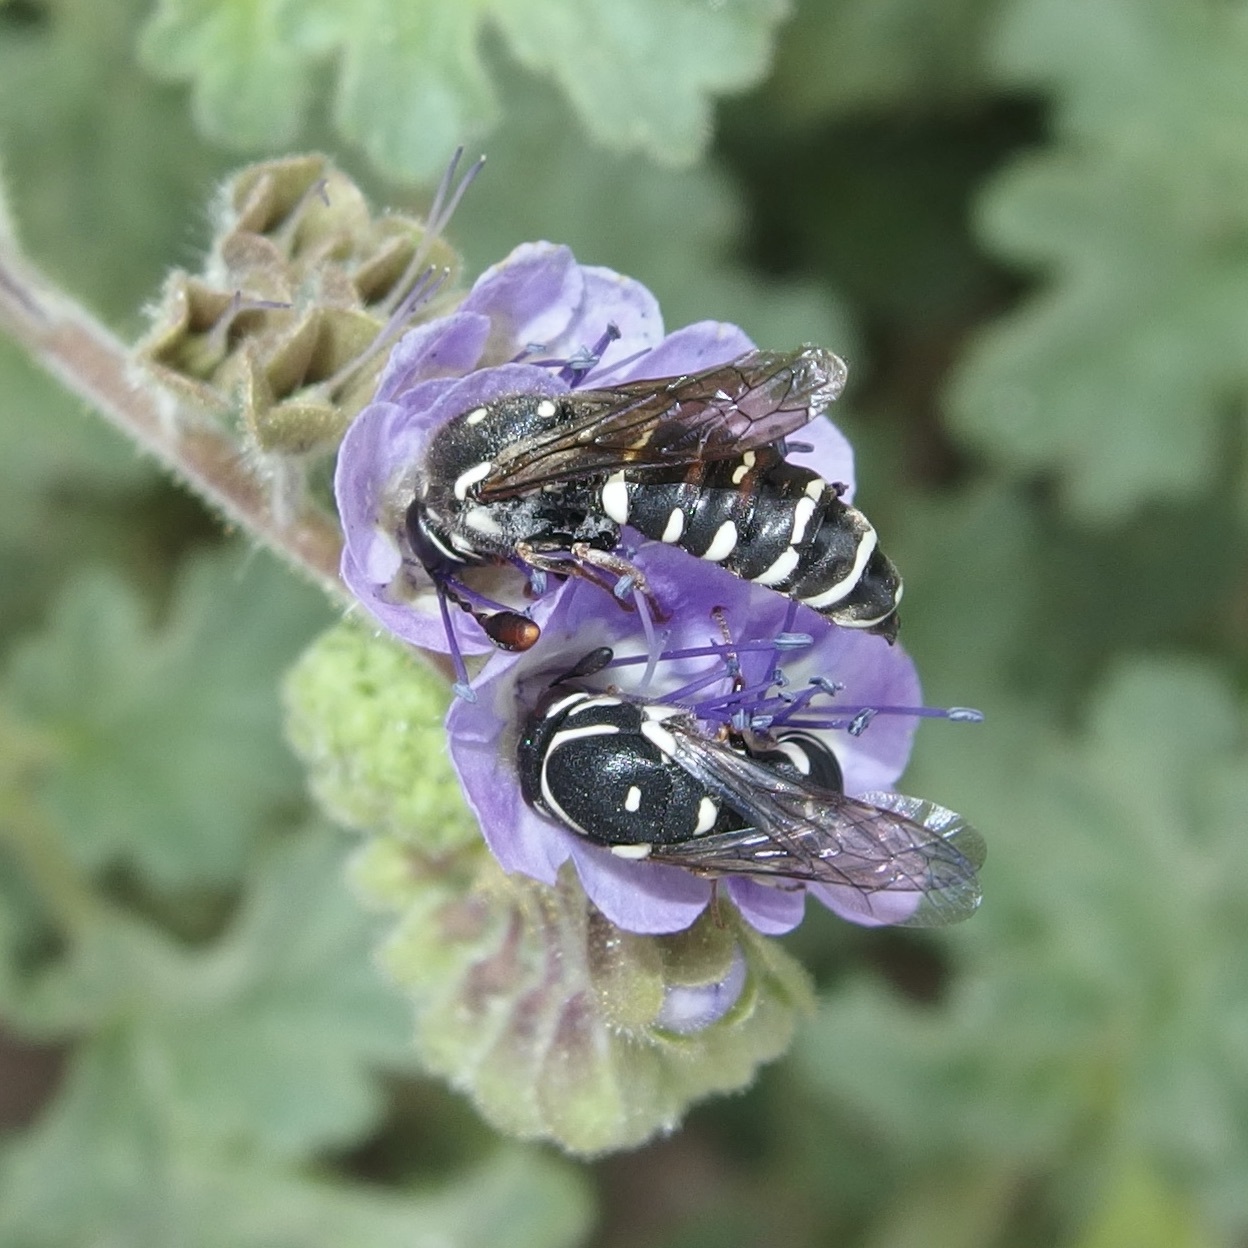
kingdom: Animalia
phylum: Arthropoda
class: Insecta
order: Hymenoptera
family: Masaridae
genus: Pseudomasaris
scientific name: Pseudomasaris basirufus
